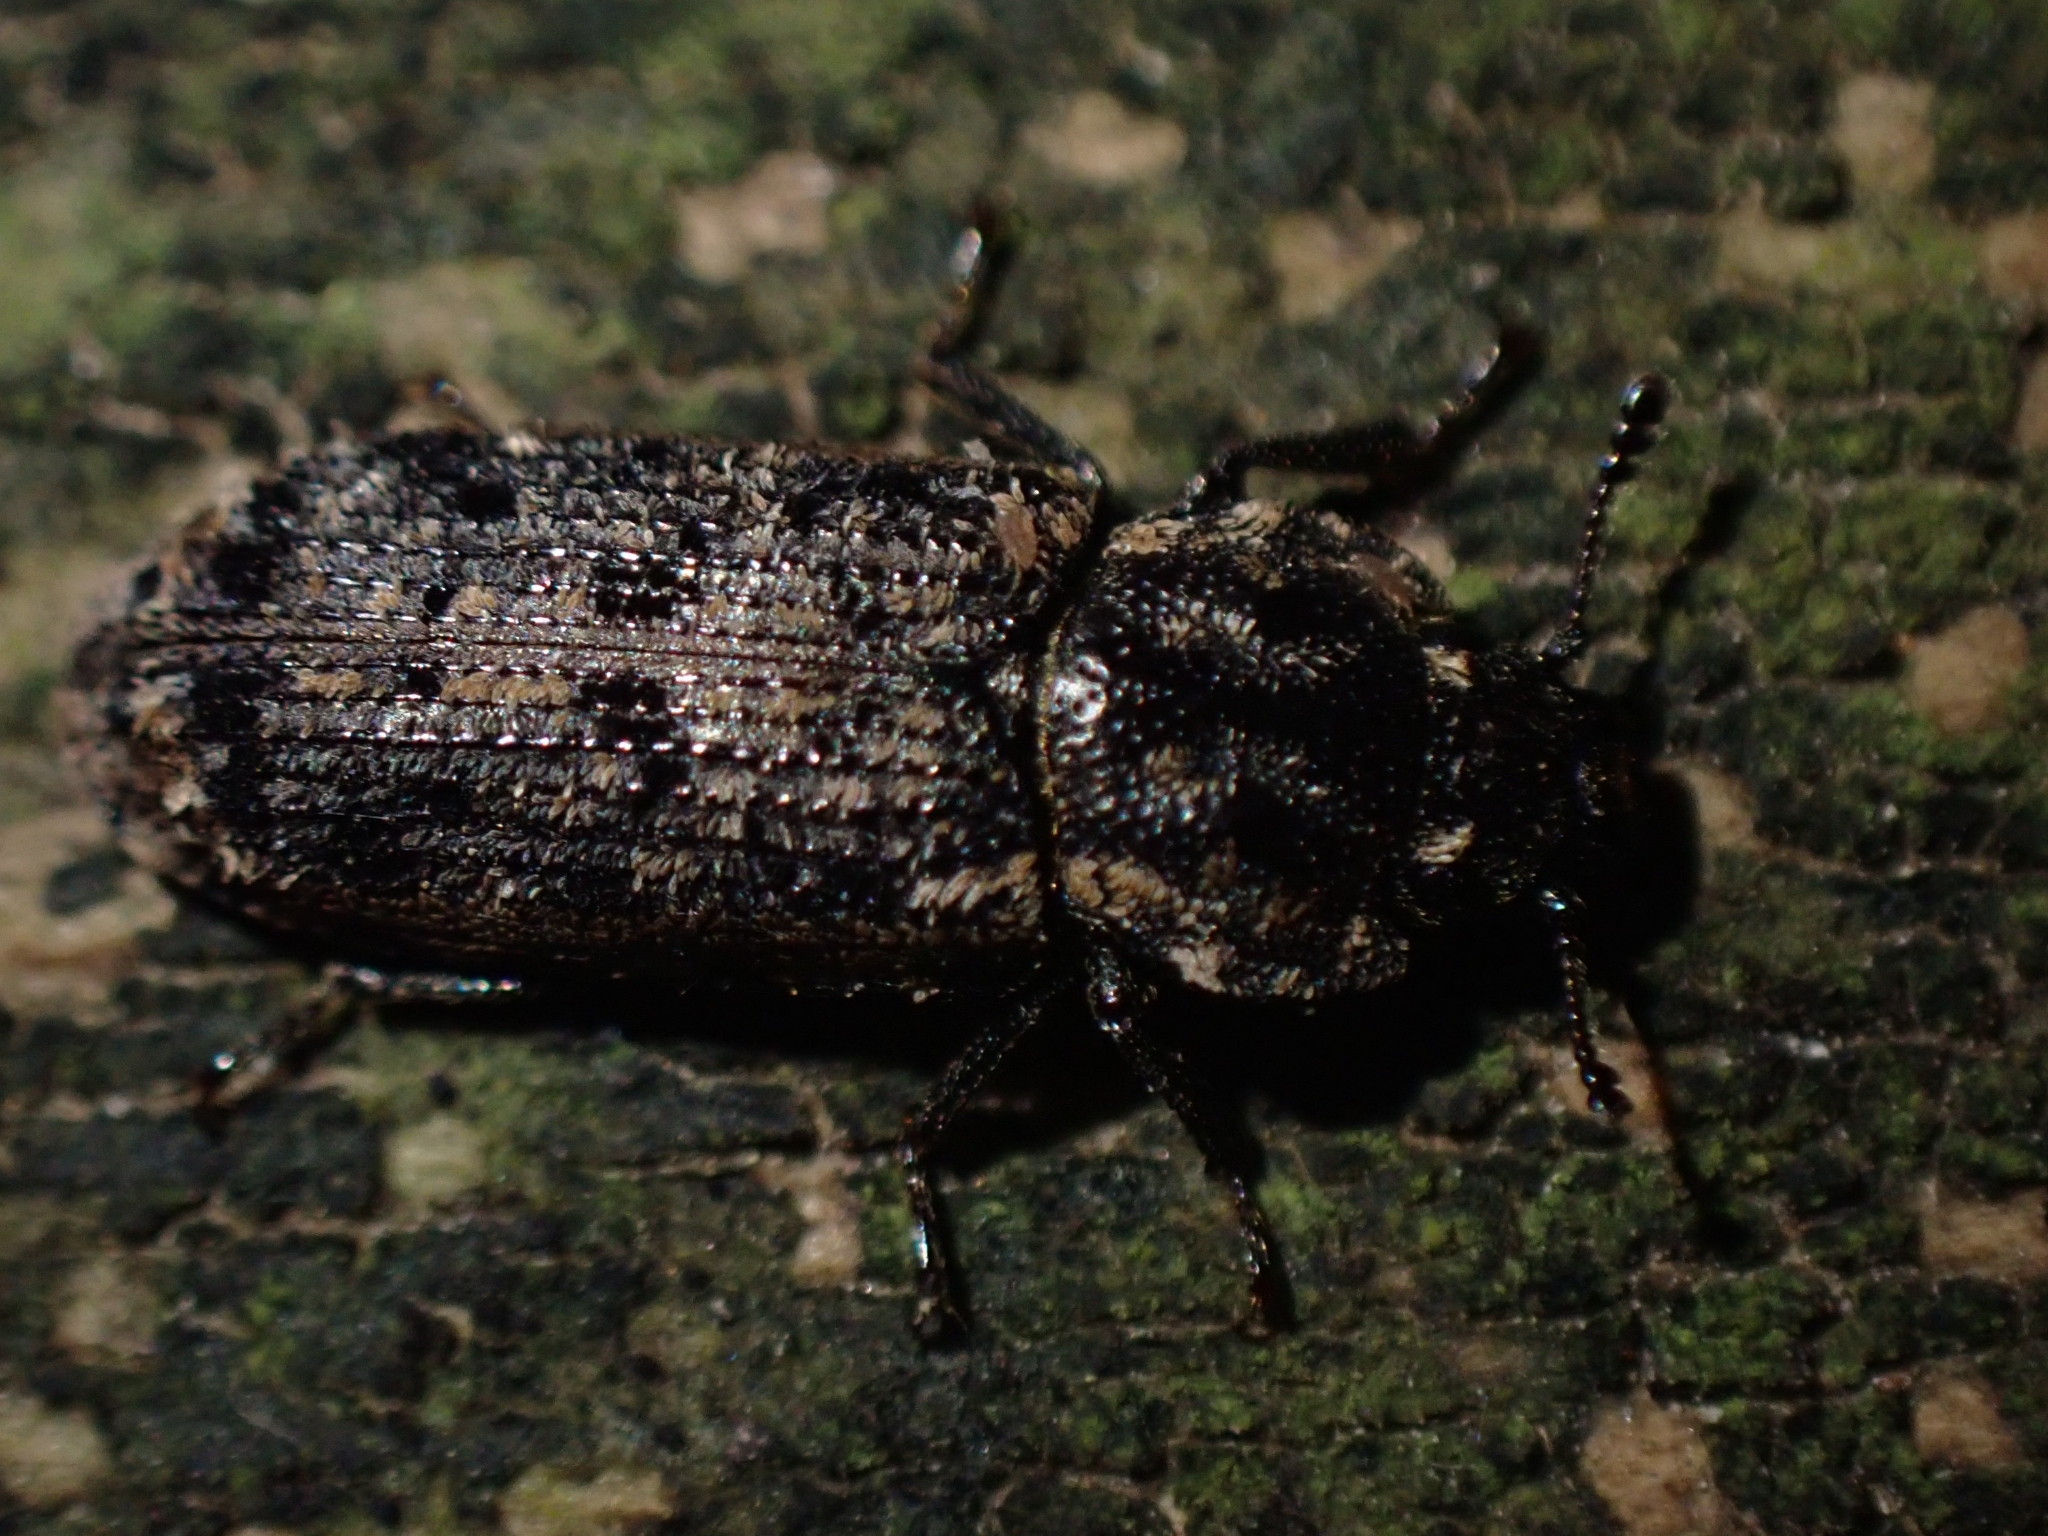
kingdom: Animalia
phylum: Arthropoda
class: Insecta
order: Coleoptera
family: Trogossitidae
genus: Phanodesta
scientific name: Phanodesta
